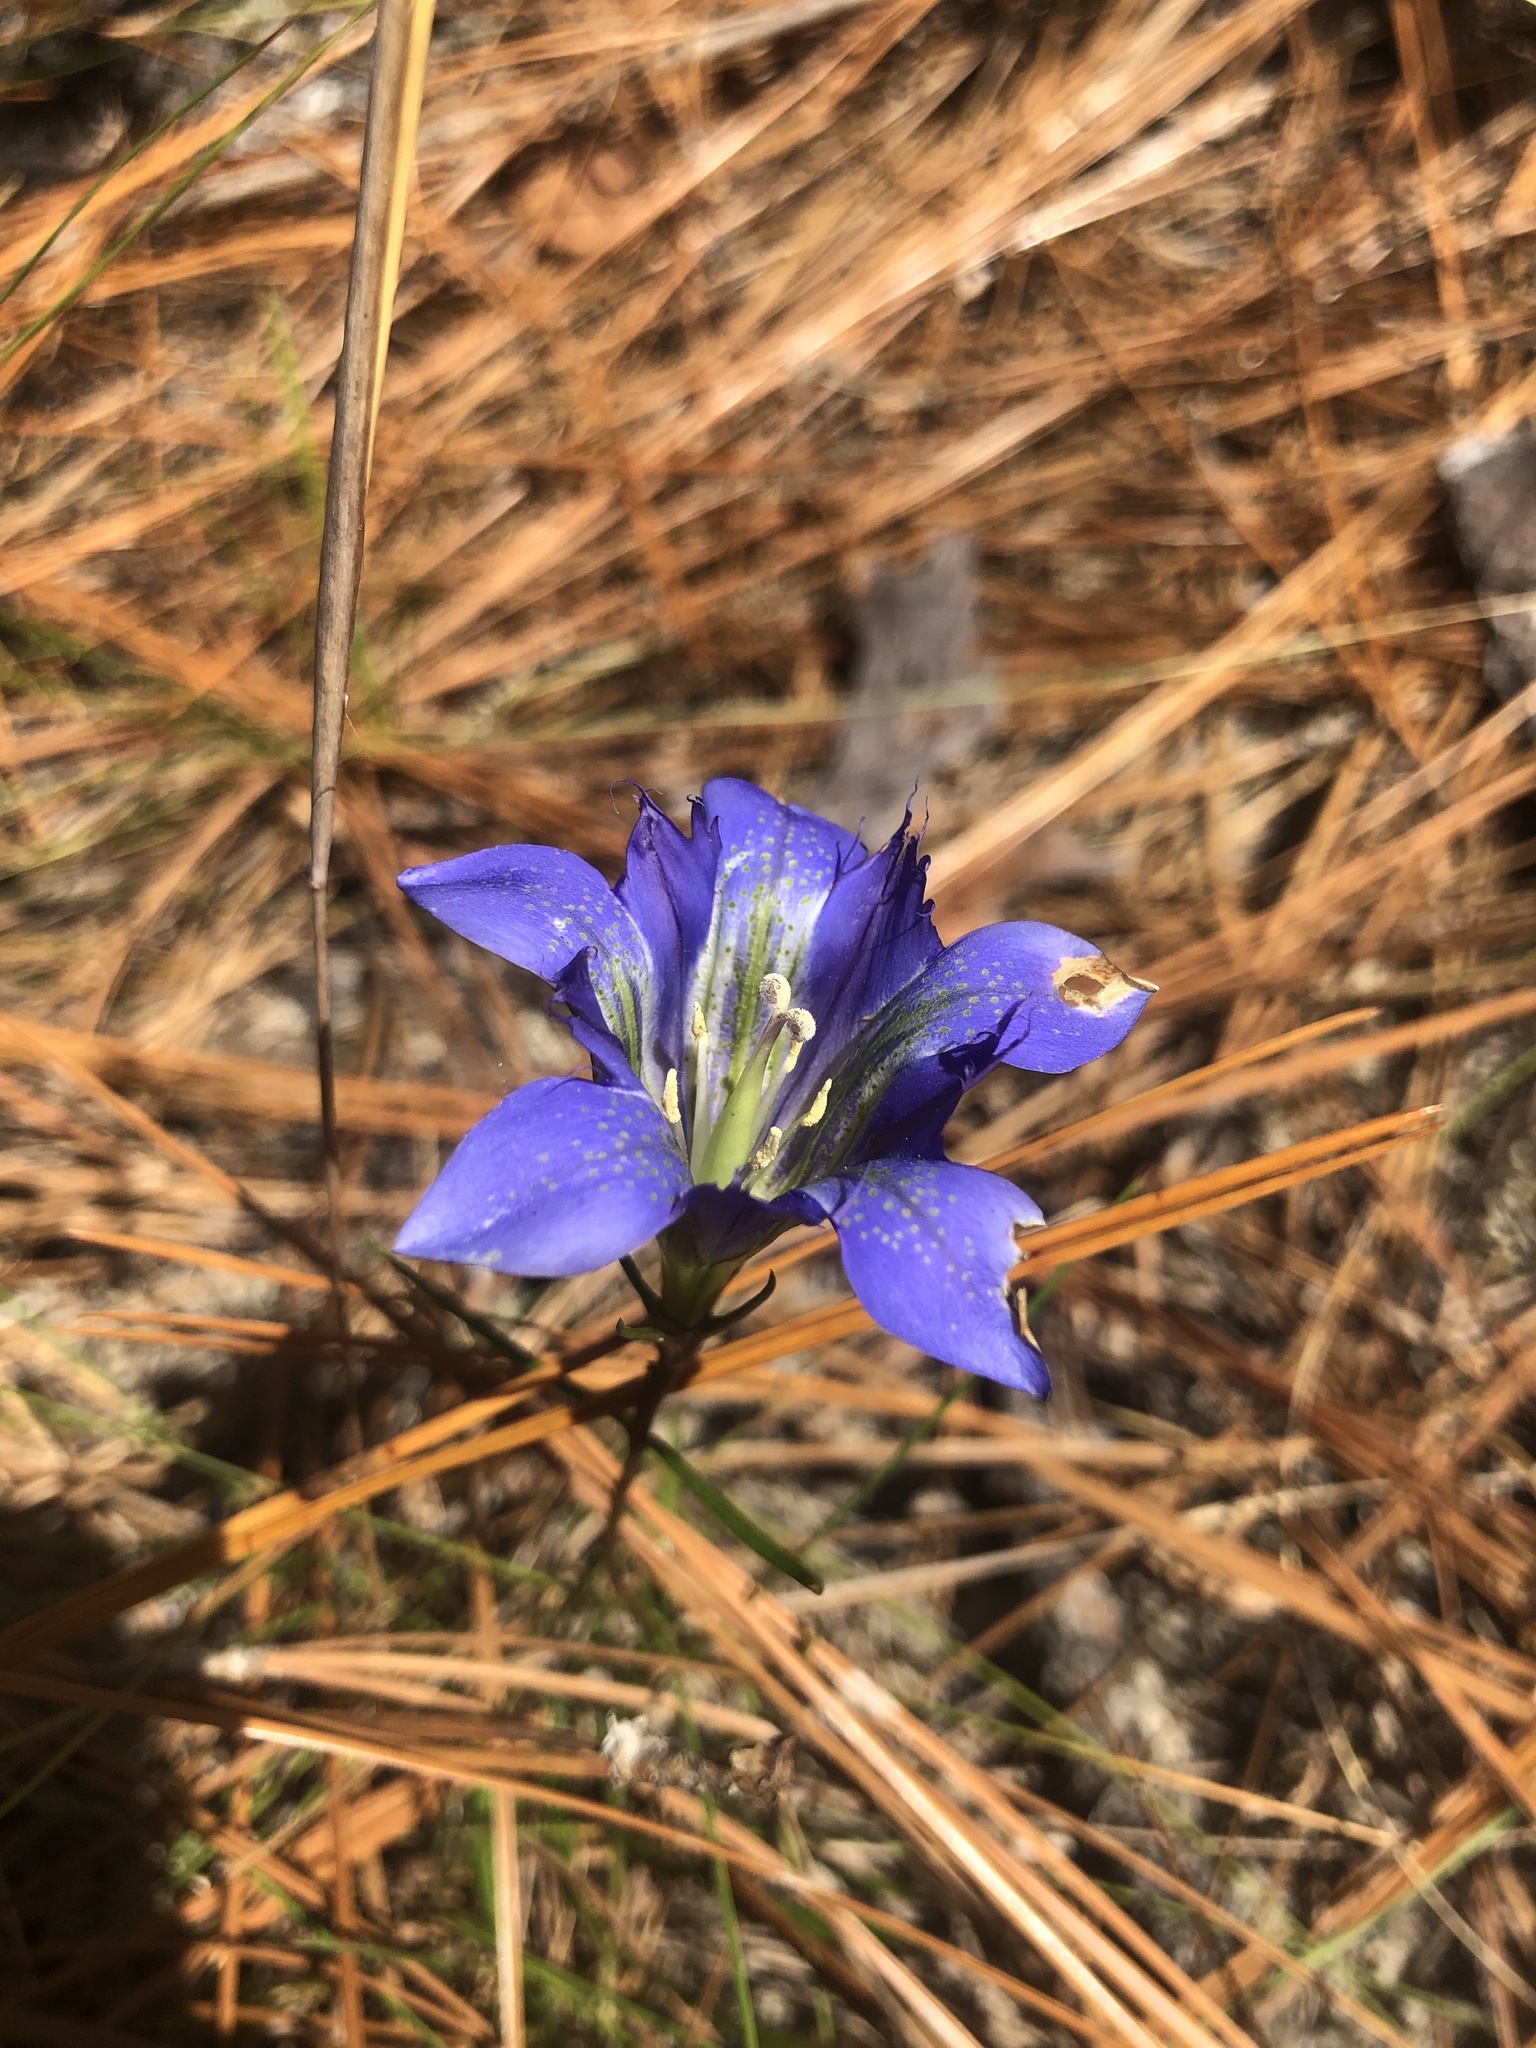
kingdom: Plantae
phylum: Tracheophyta
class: Magnoliopsida
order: Gentianales
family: Gentianaceae
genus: Gentiana
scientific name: Gentiana autumnalis
